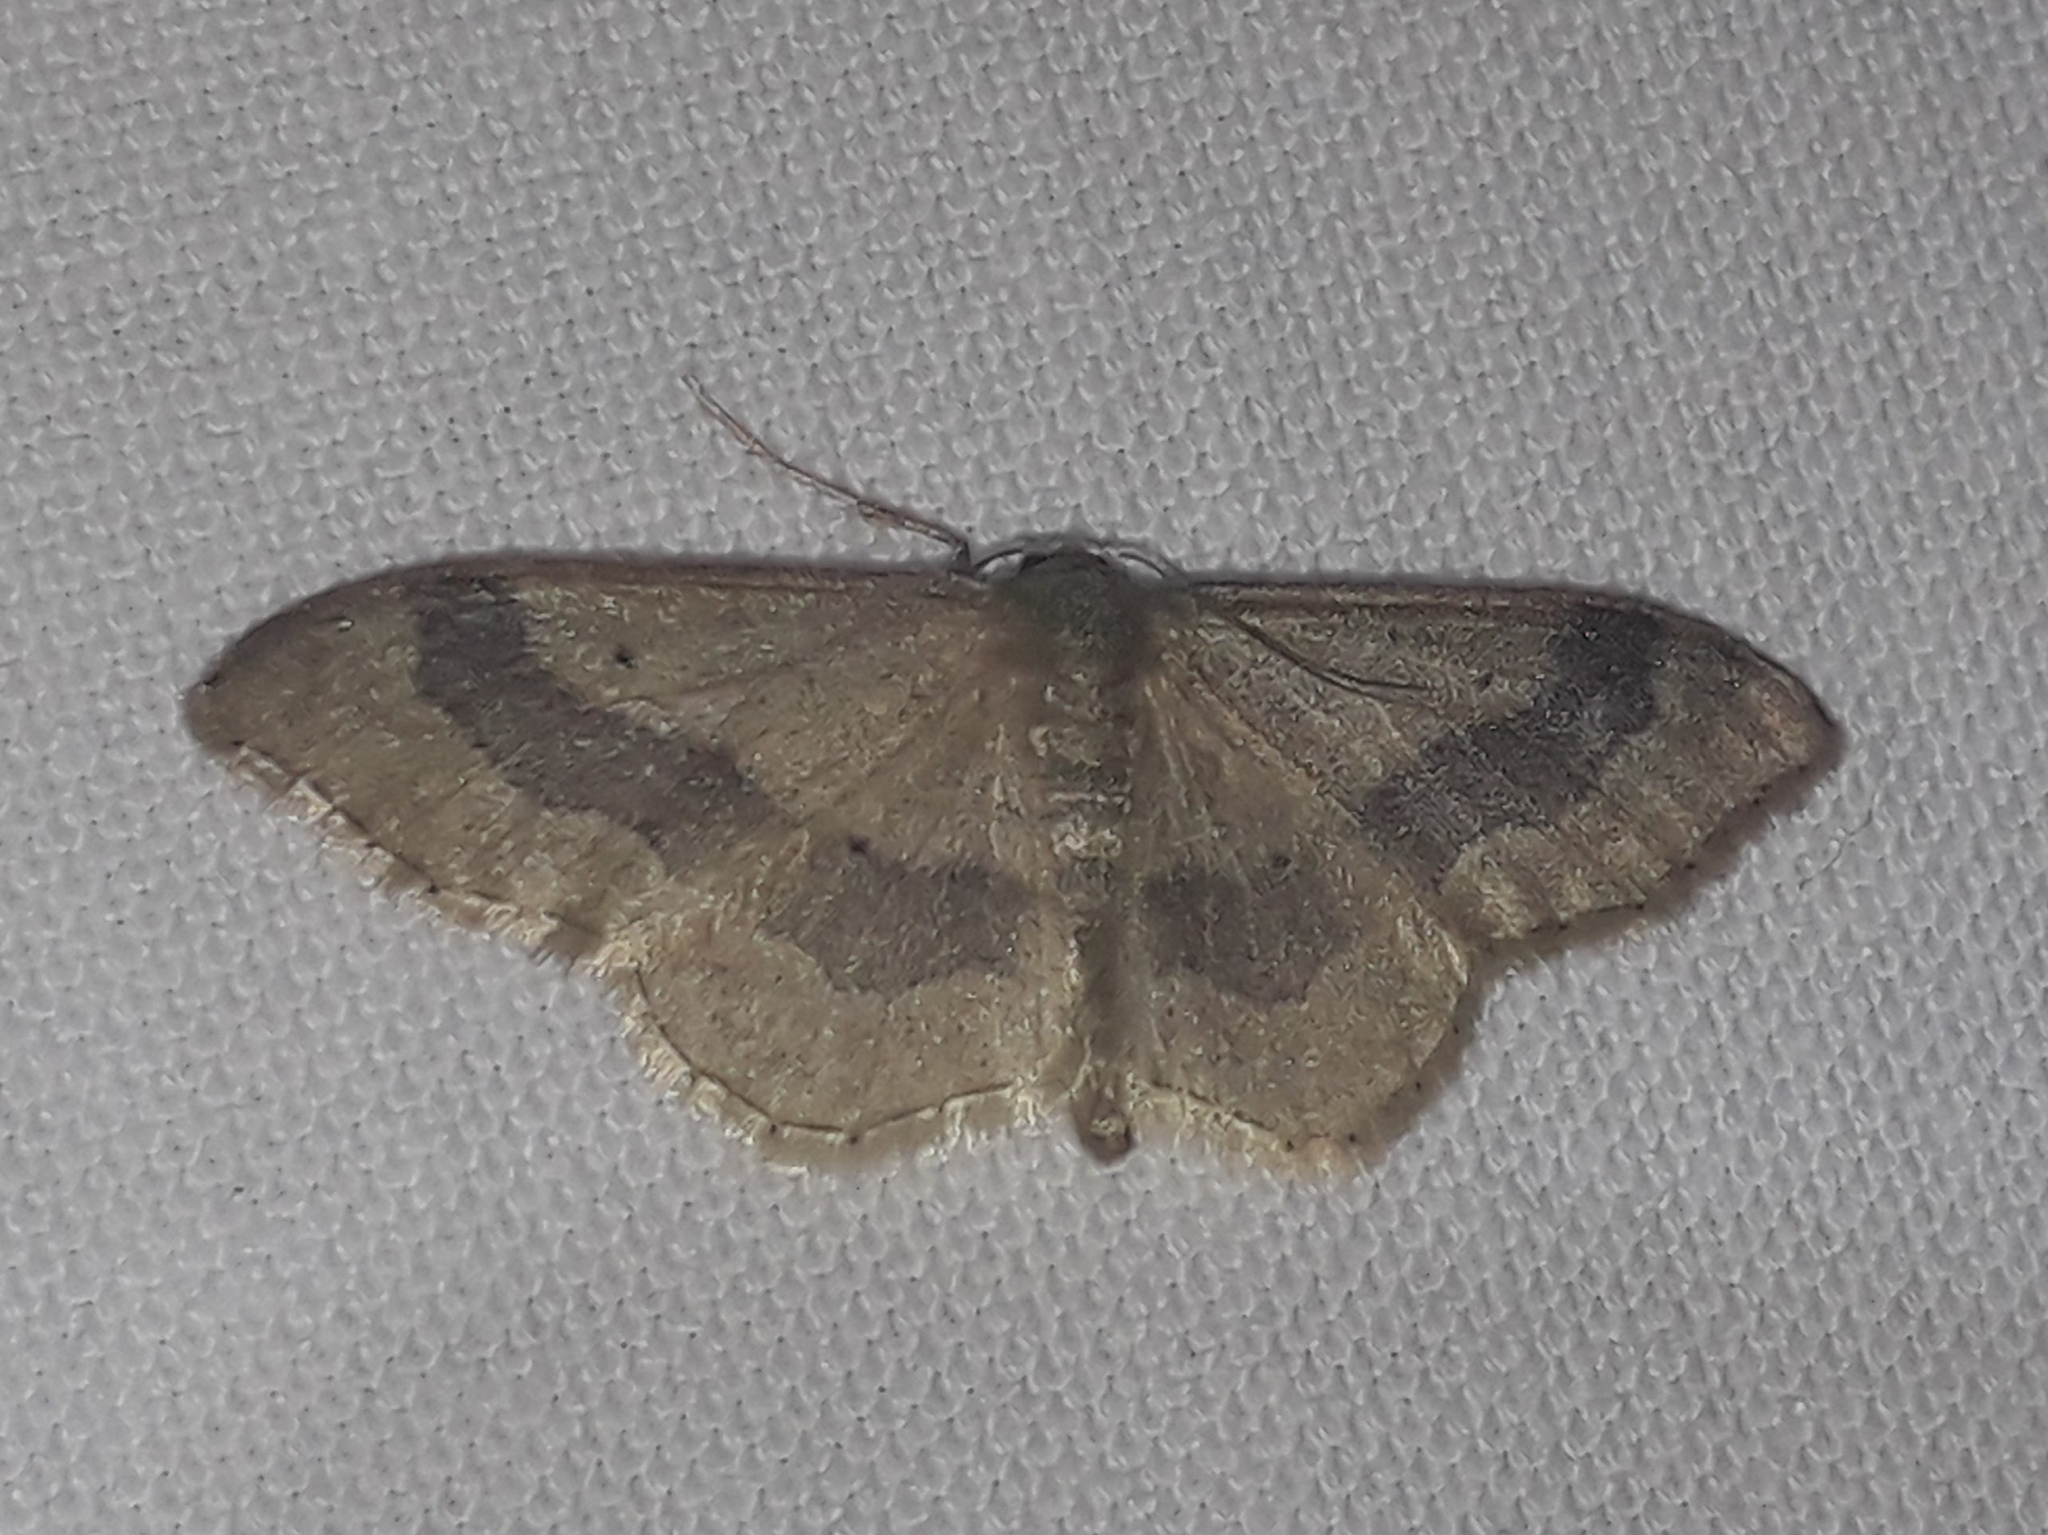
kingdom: Animalia
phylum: Arthropoda
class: Insecta
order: Lepidoptera
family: Geometridae
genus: Idaea
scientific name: Idaea aversata
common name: Riband wave
